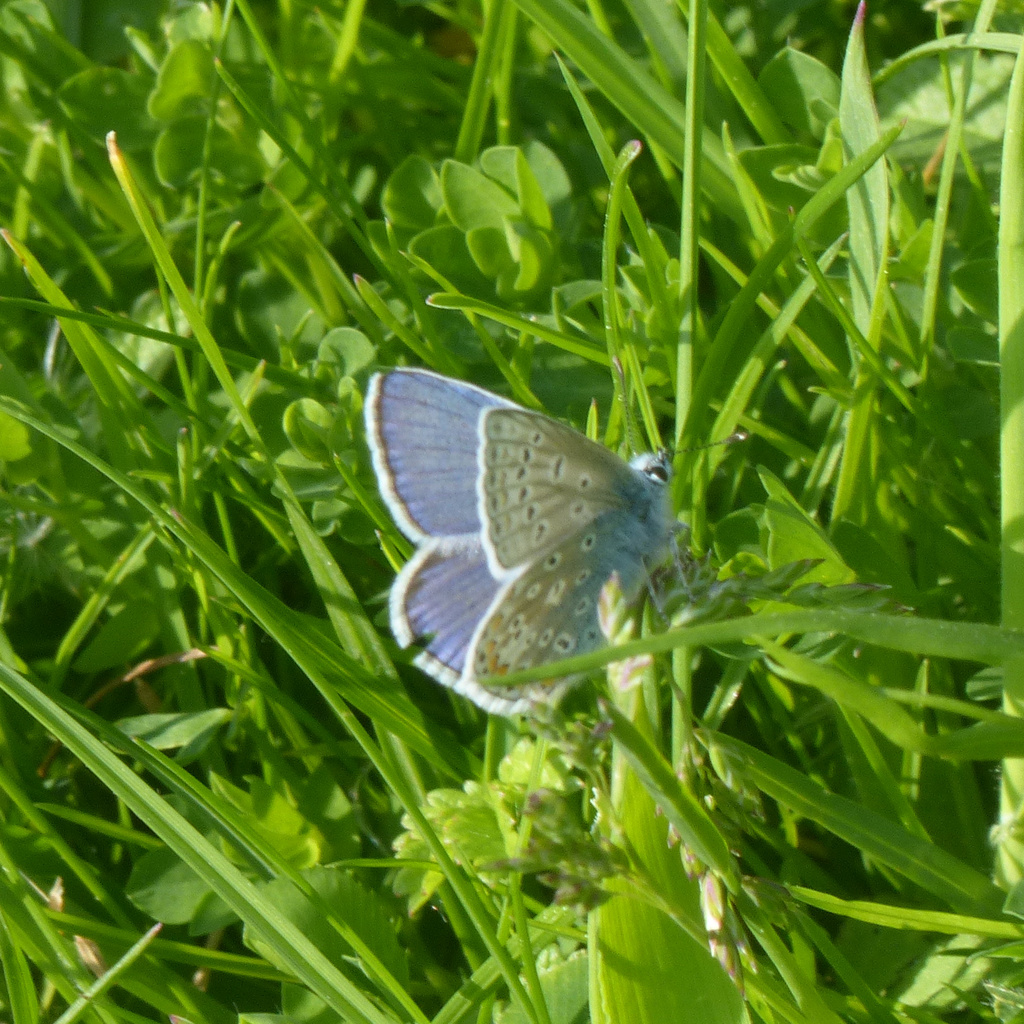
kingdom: Animalia
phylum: Arthropoda
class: Insecta
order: Lepidoptera
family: Lycaenidae
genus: Polyommatus
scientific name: Polyommatus icarus
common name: Common blue
